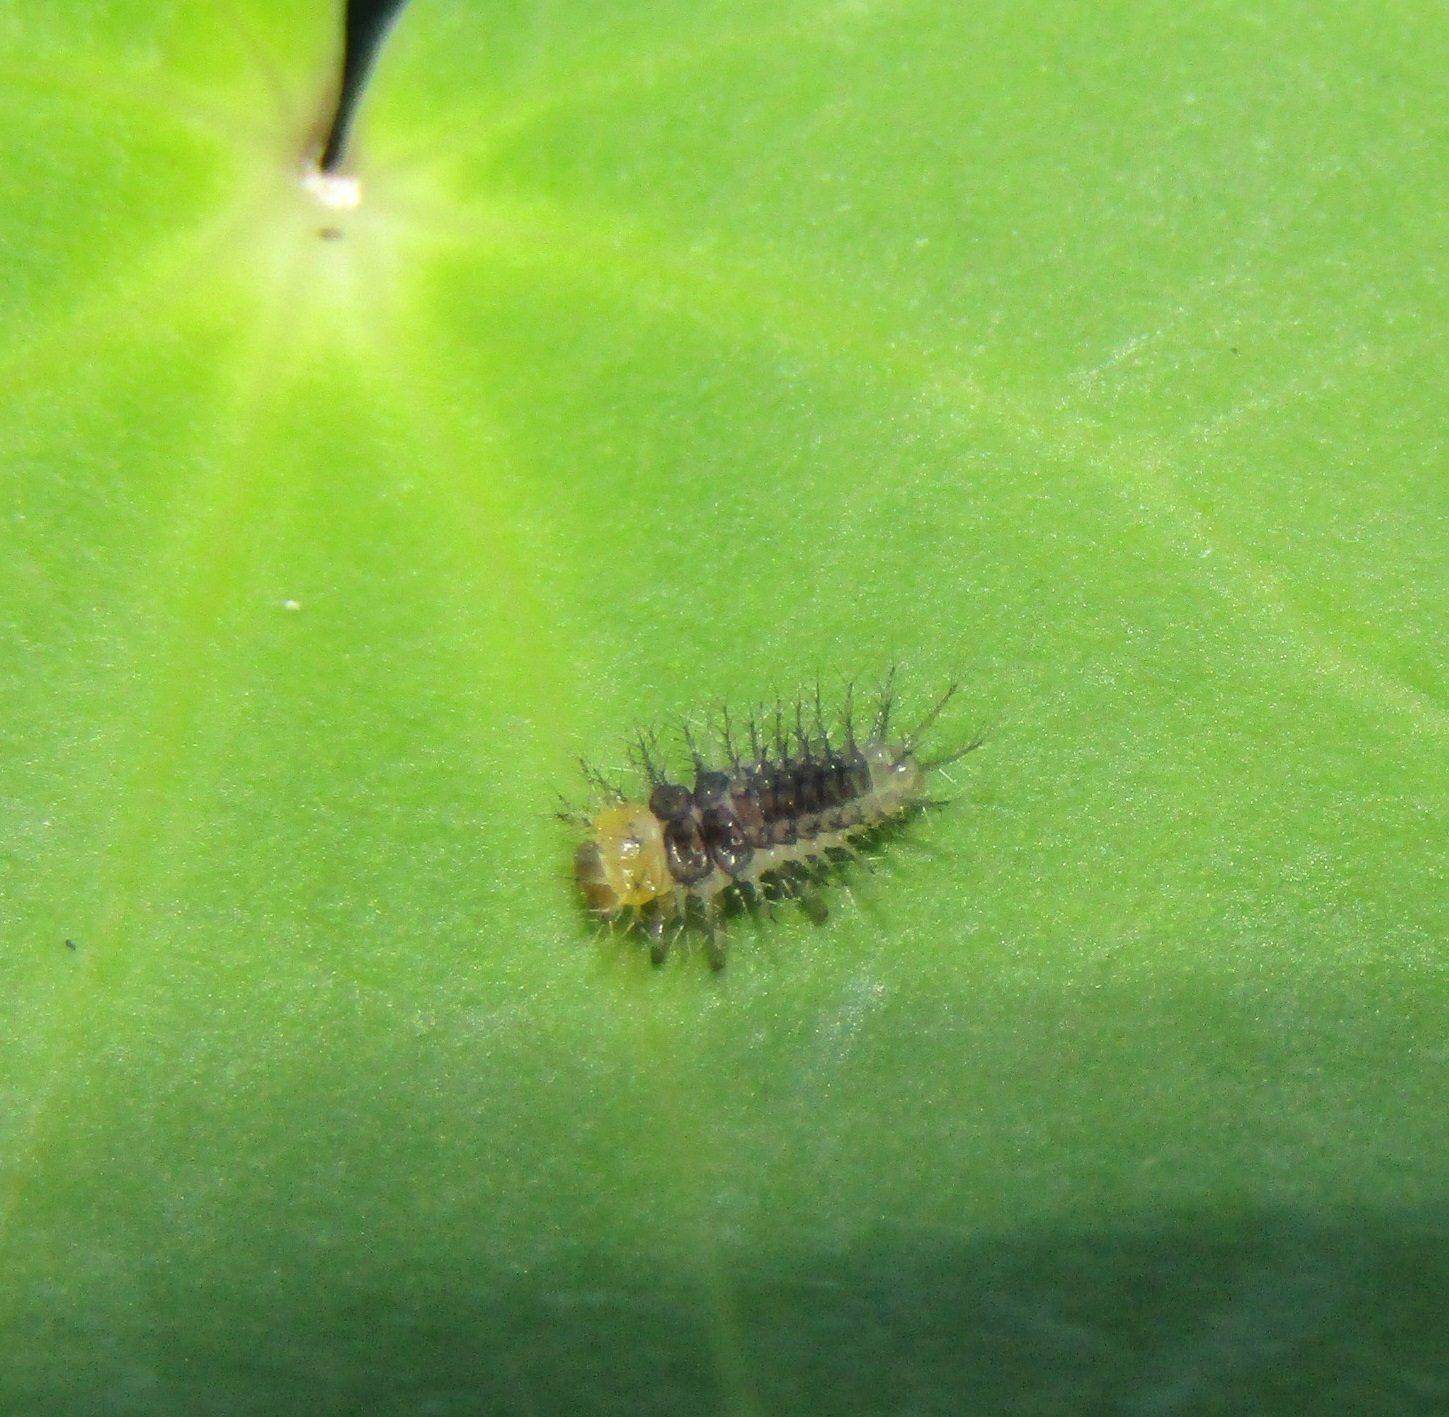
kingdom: Animalia
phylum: Arthropoda
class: Insecta
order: Coleoptera
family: Coccinellidae
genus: Halmus
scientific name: Halmus chalybeus
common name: Steel blue ladybird beetle
